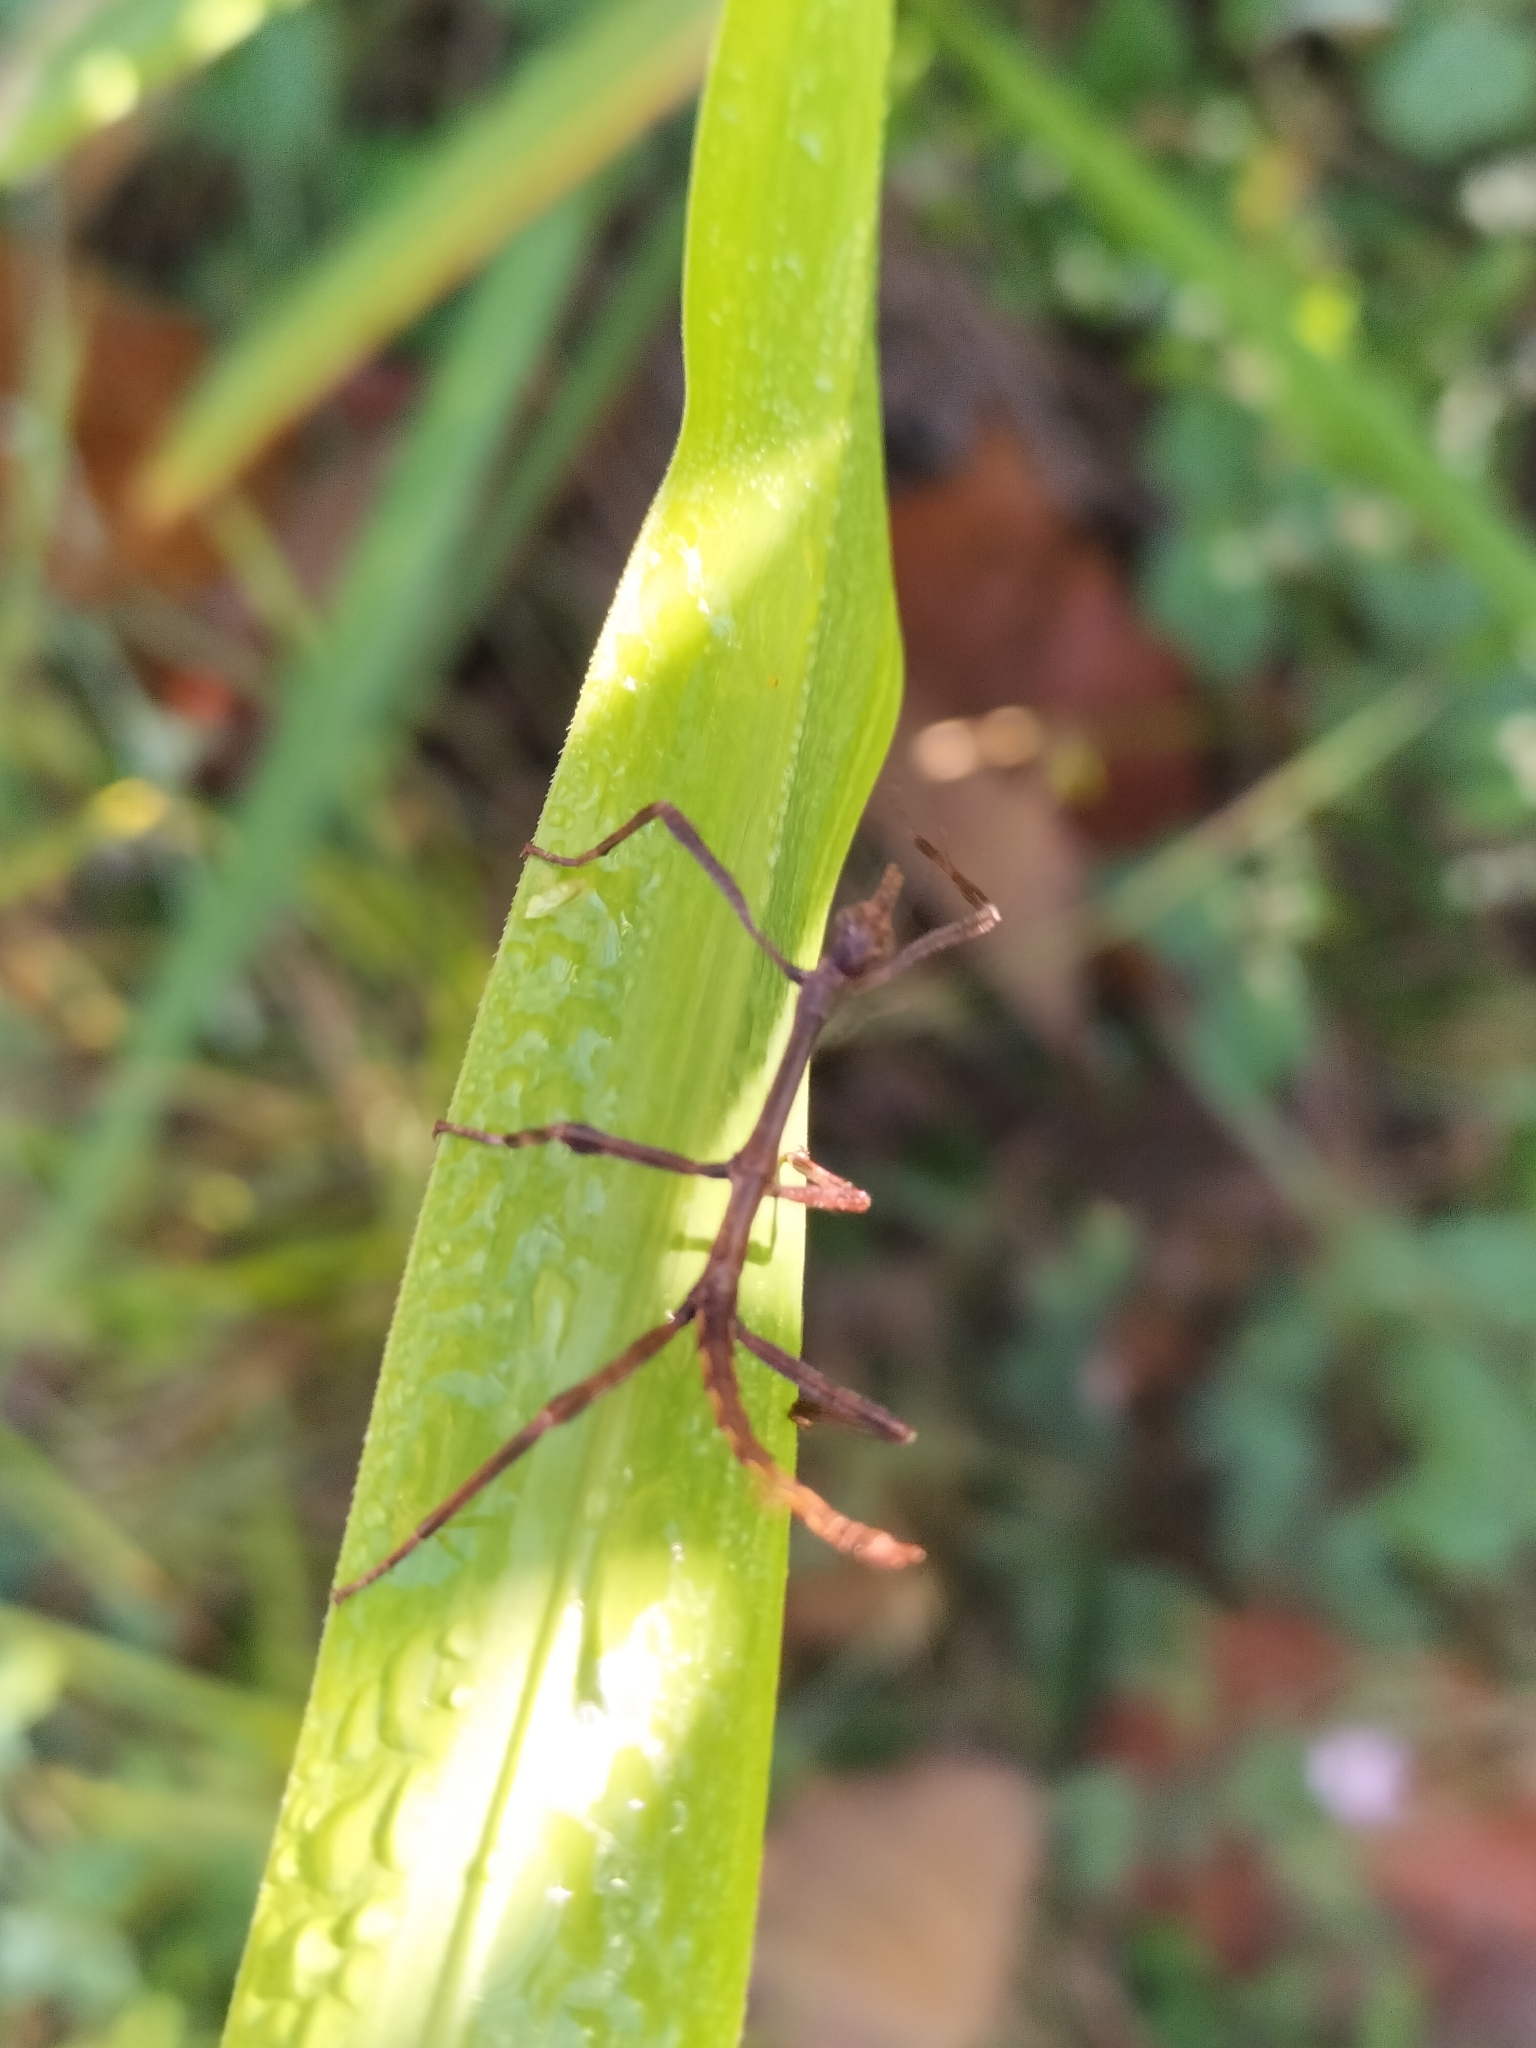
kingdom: Animalia
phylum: Arthropoda
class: Insecta
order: Phasmida
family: Phasmatidae
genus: Eurycnema
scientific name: Eurycnema goliath
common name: Goliath stick insect
